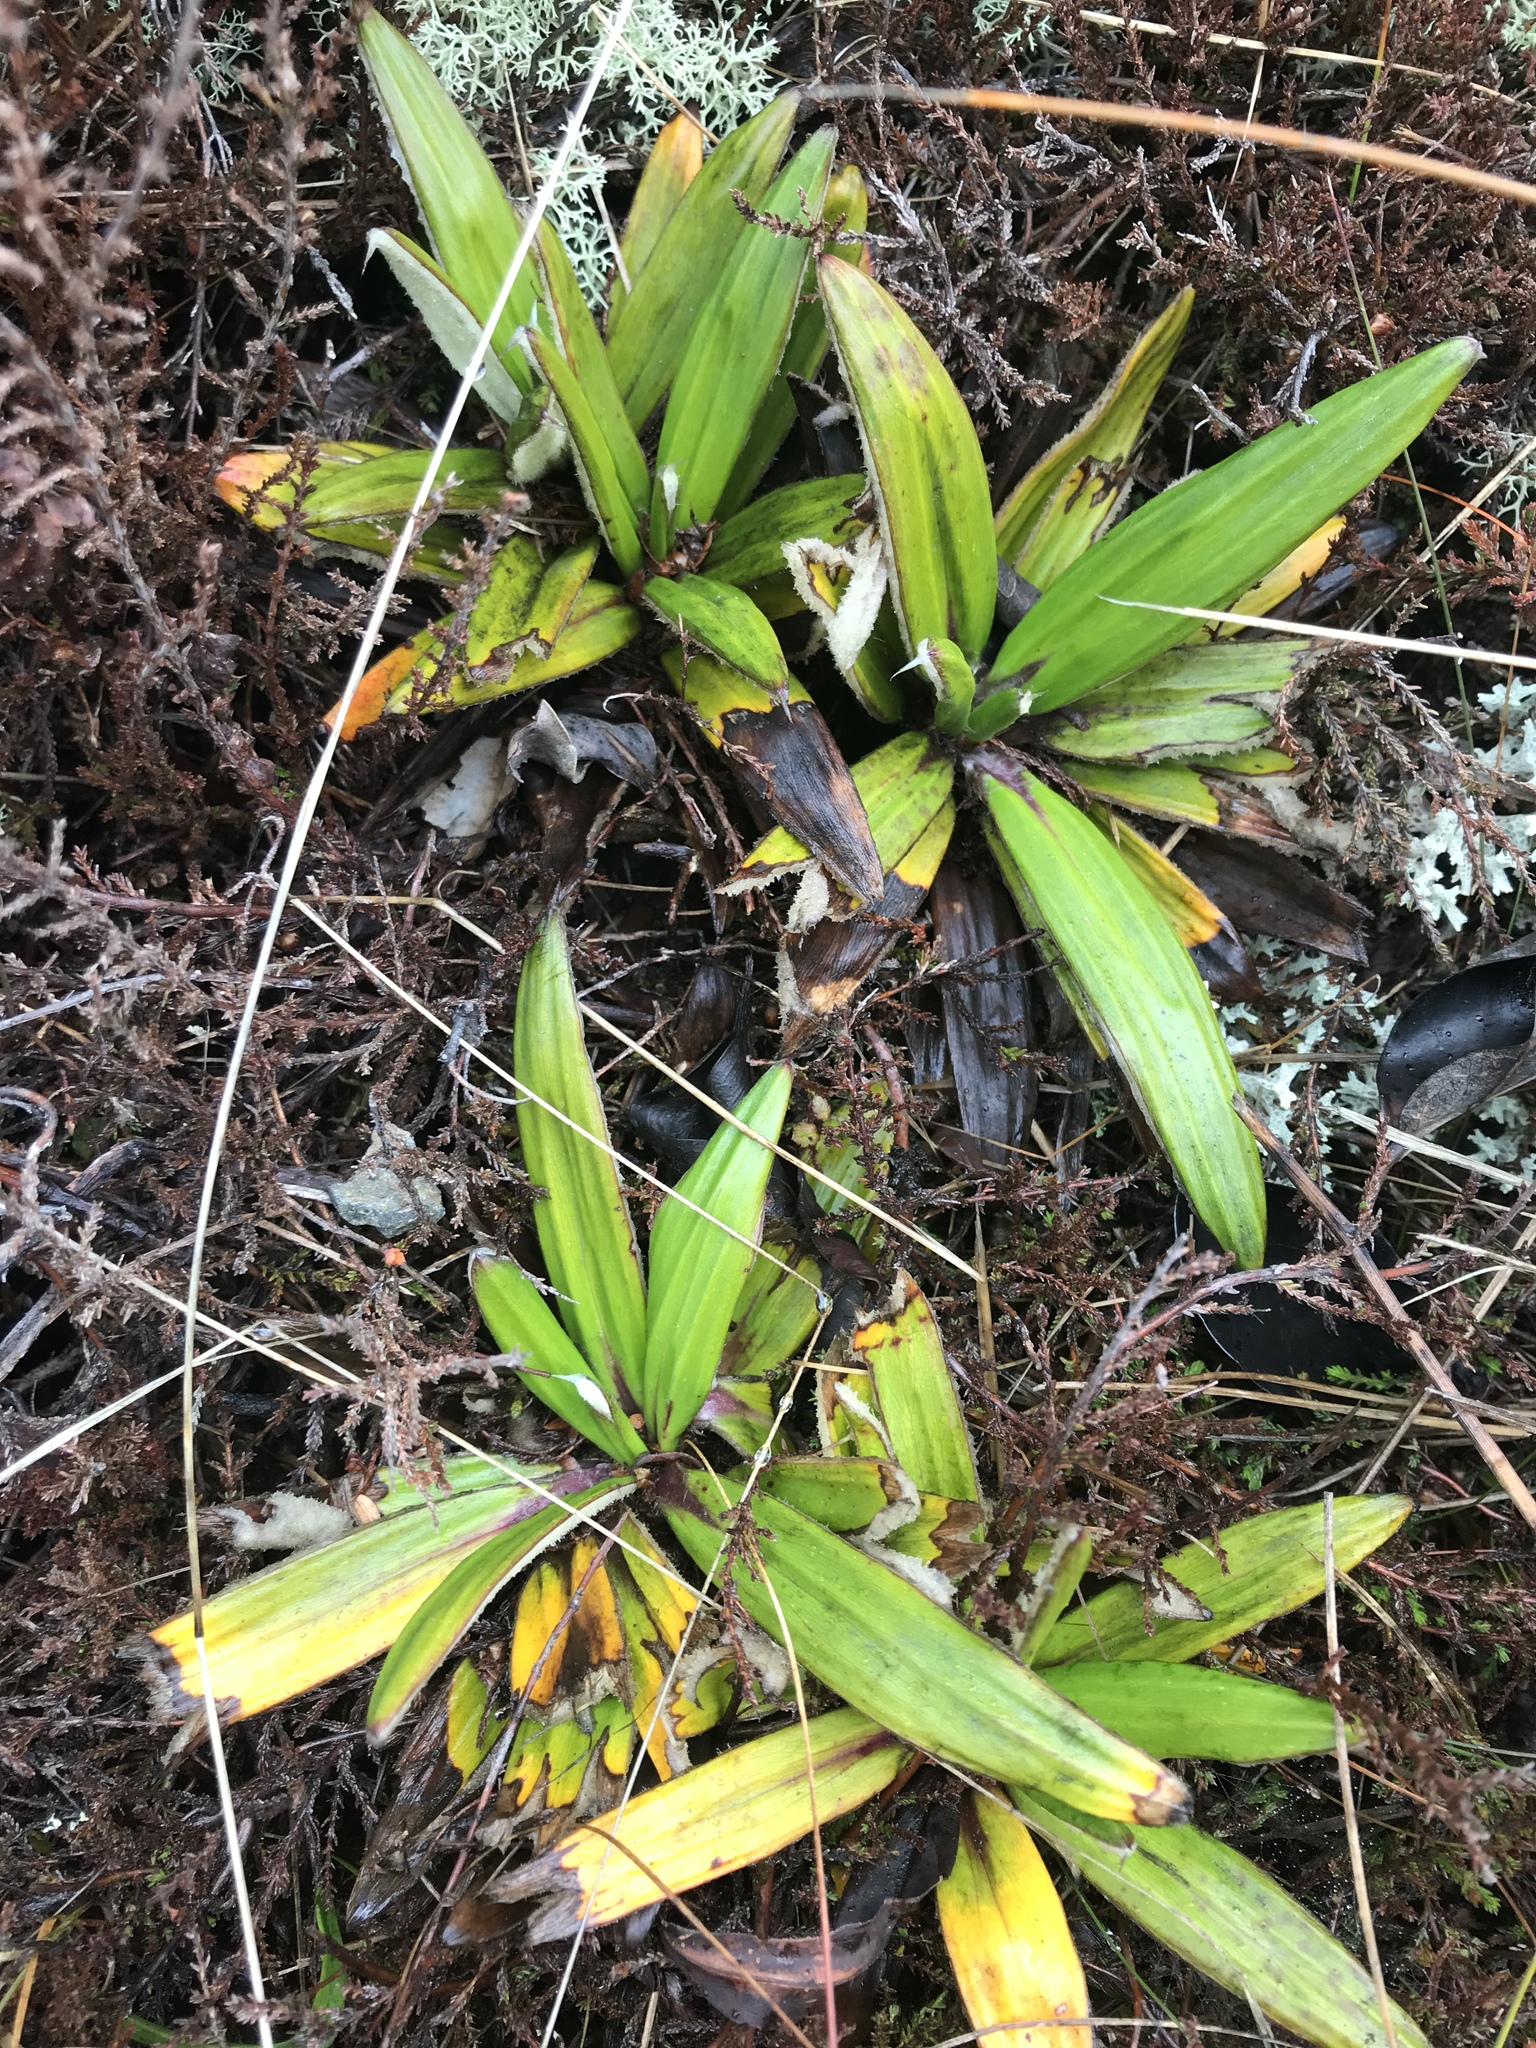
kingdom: Plantae
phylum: Tracheophyta
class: Magnoliopsida
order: Asterales
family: Asteraceae
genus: Celmisia
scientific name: Celmisia spectabilis
